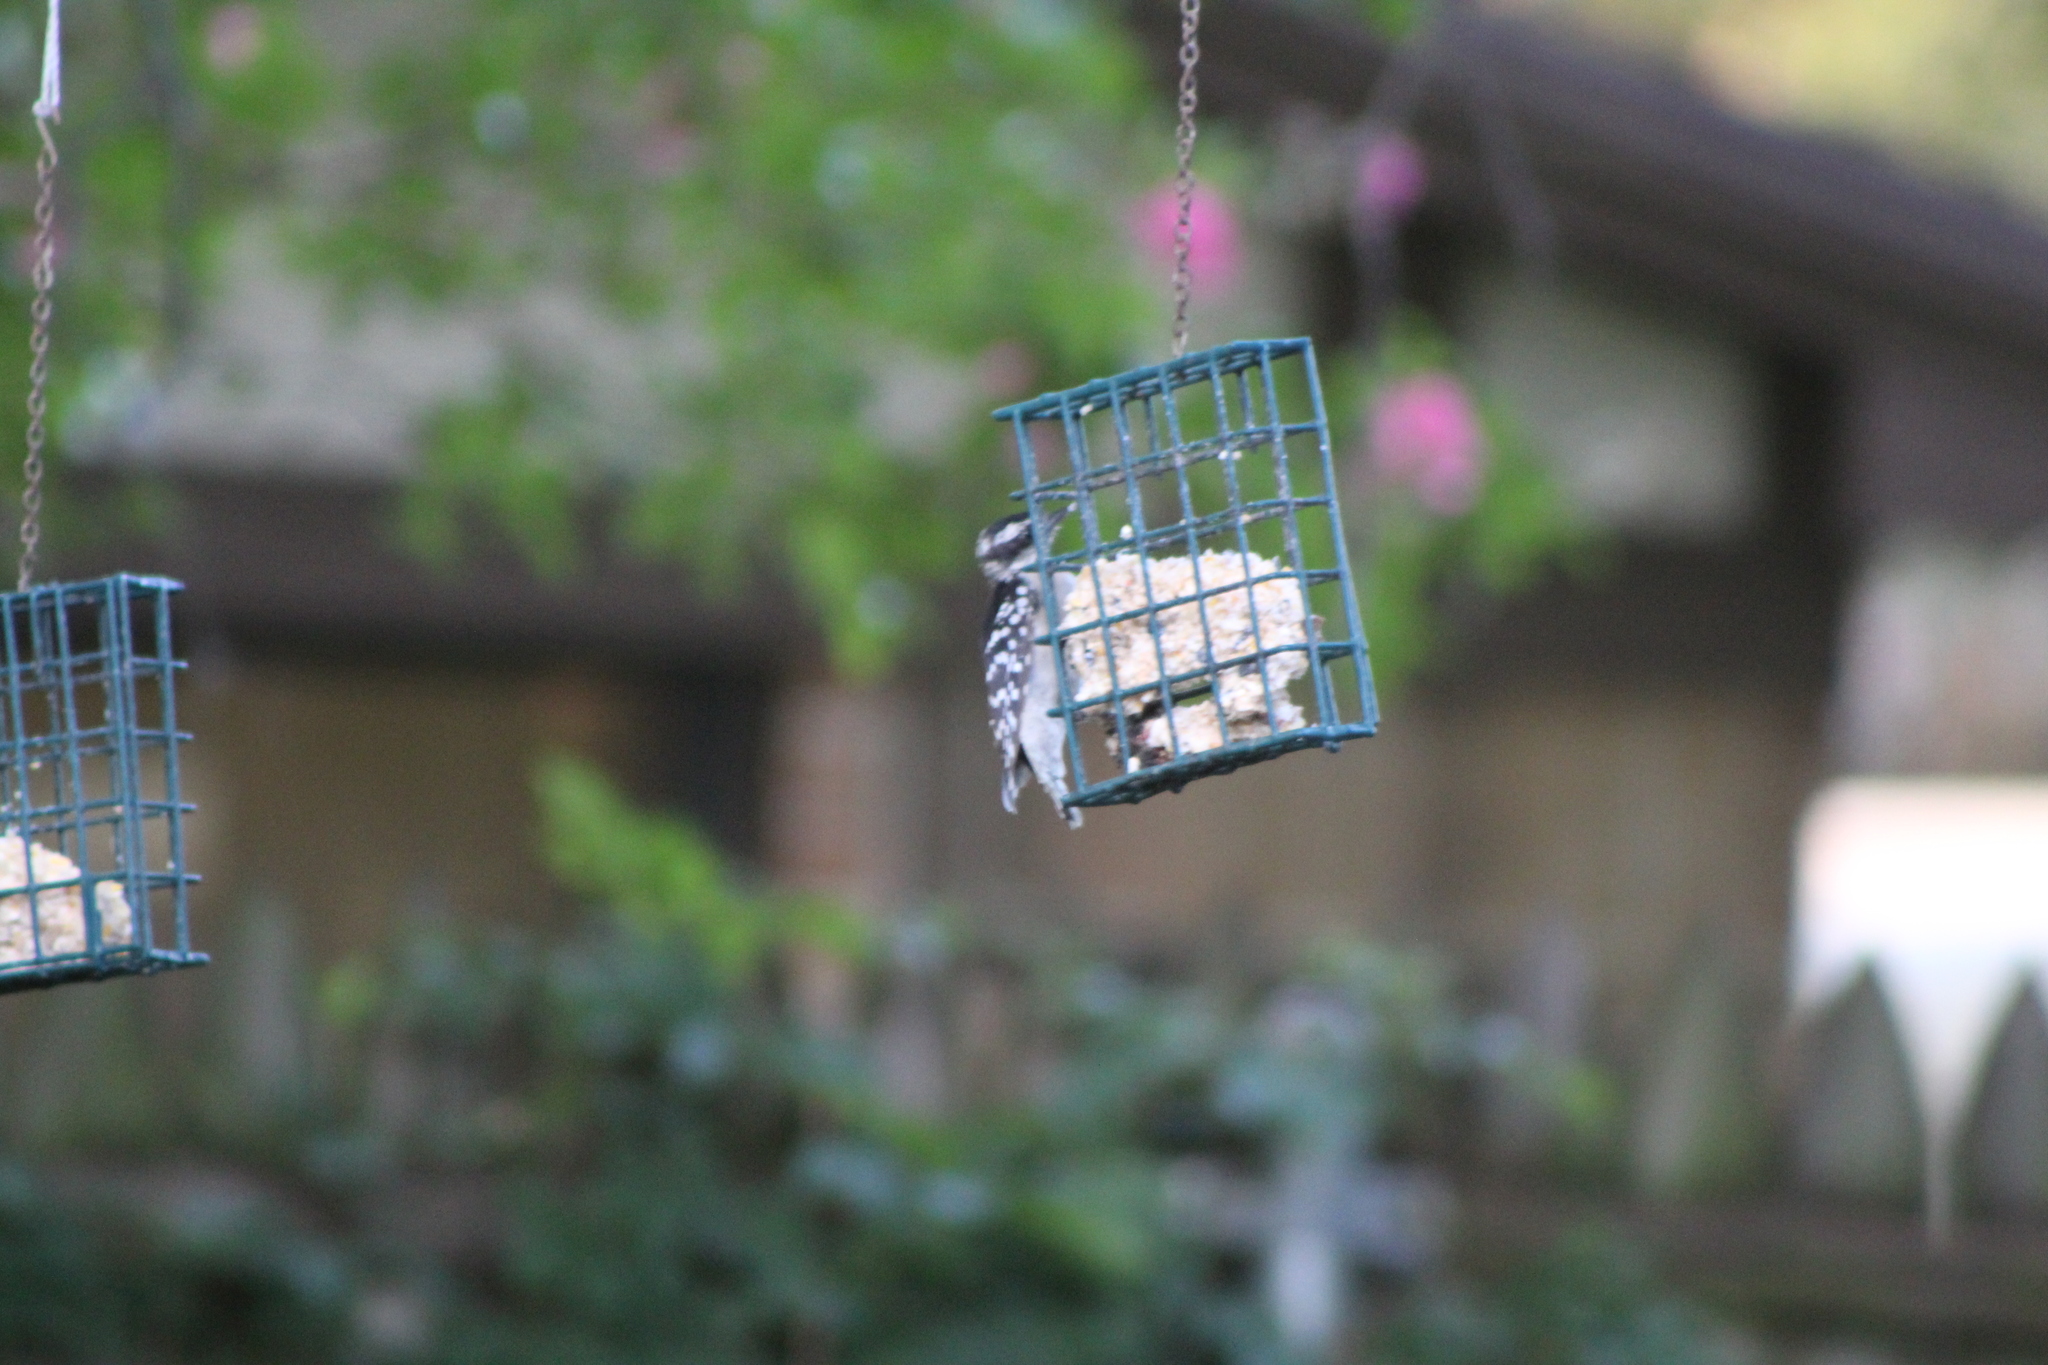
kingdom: Animalia
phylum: Chordata
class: Aves
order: Piciformes
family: Picidae
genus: Dryobates
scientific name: Dryobates pubescens
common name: Downy woodpecker
